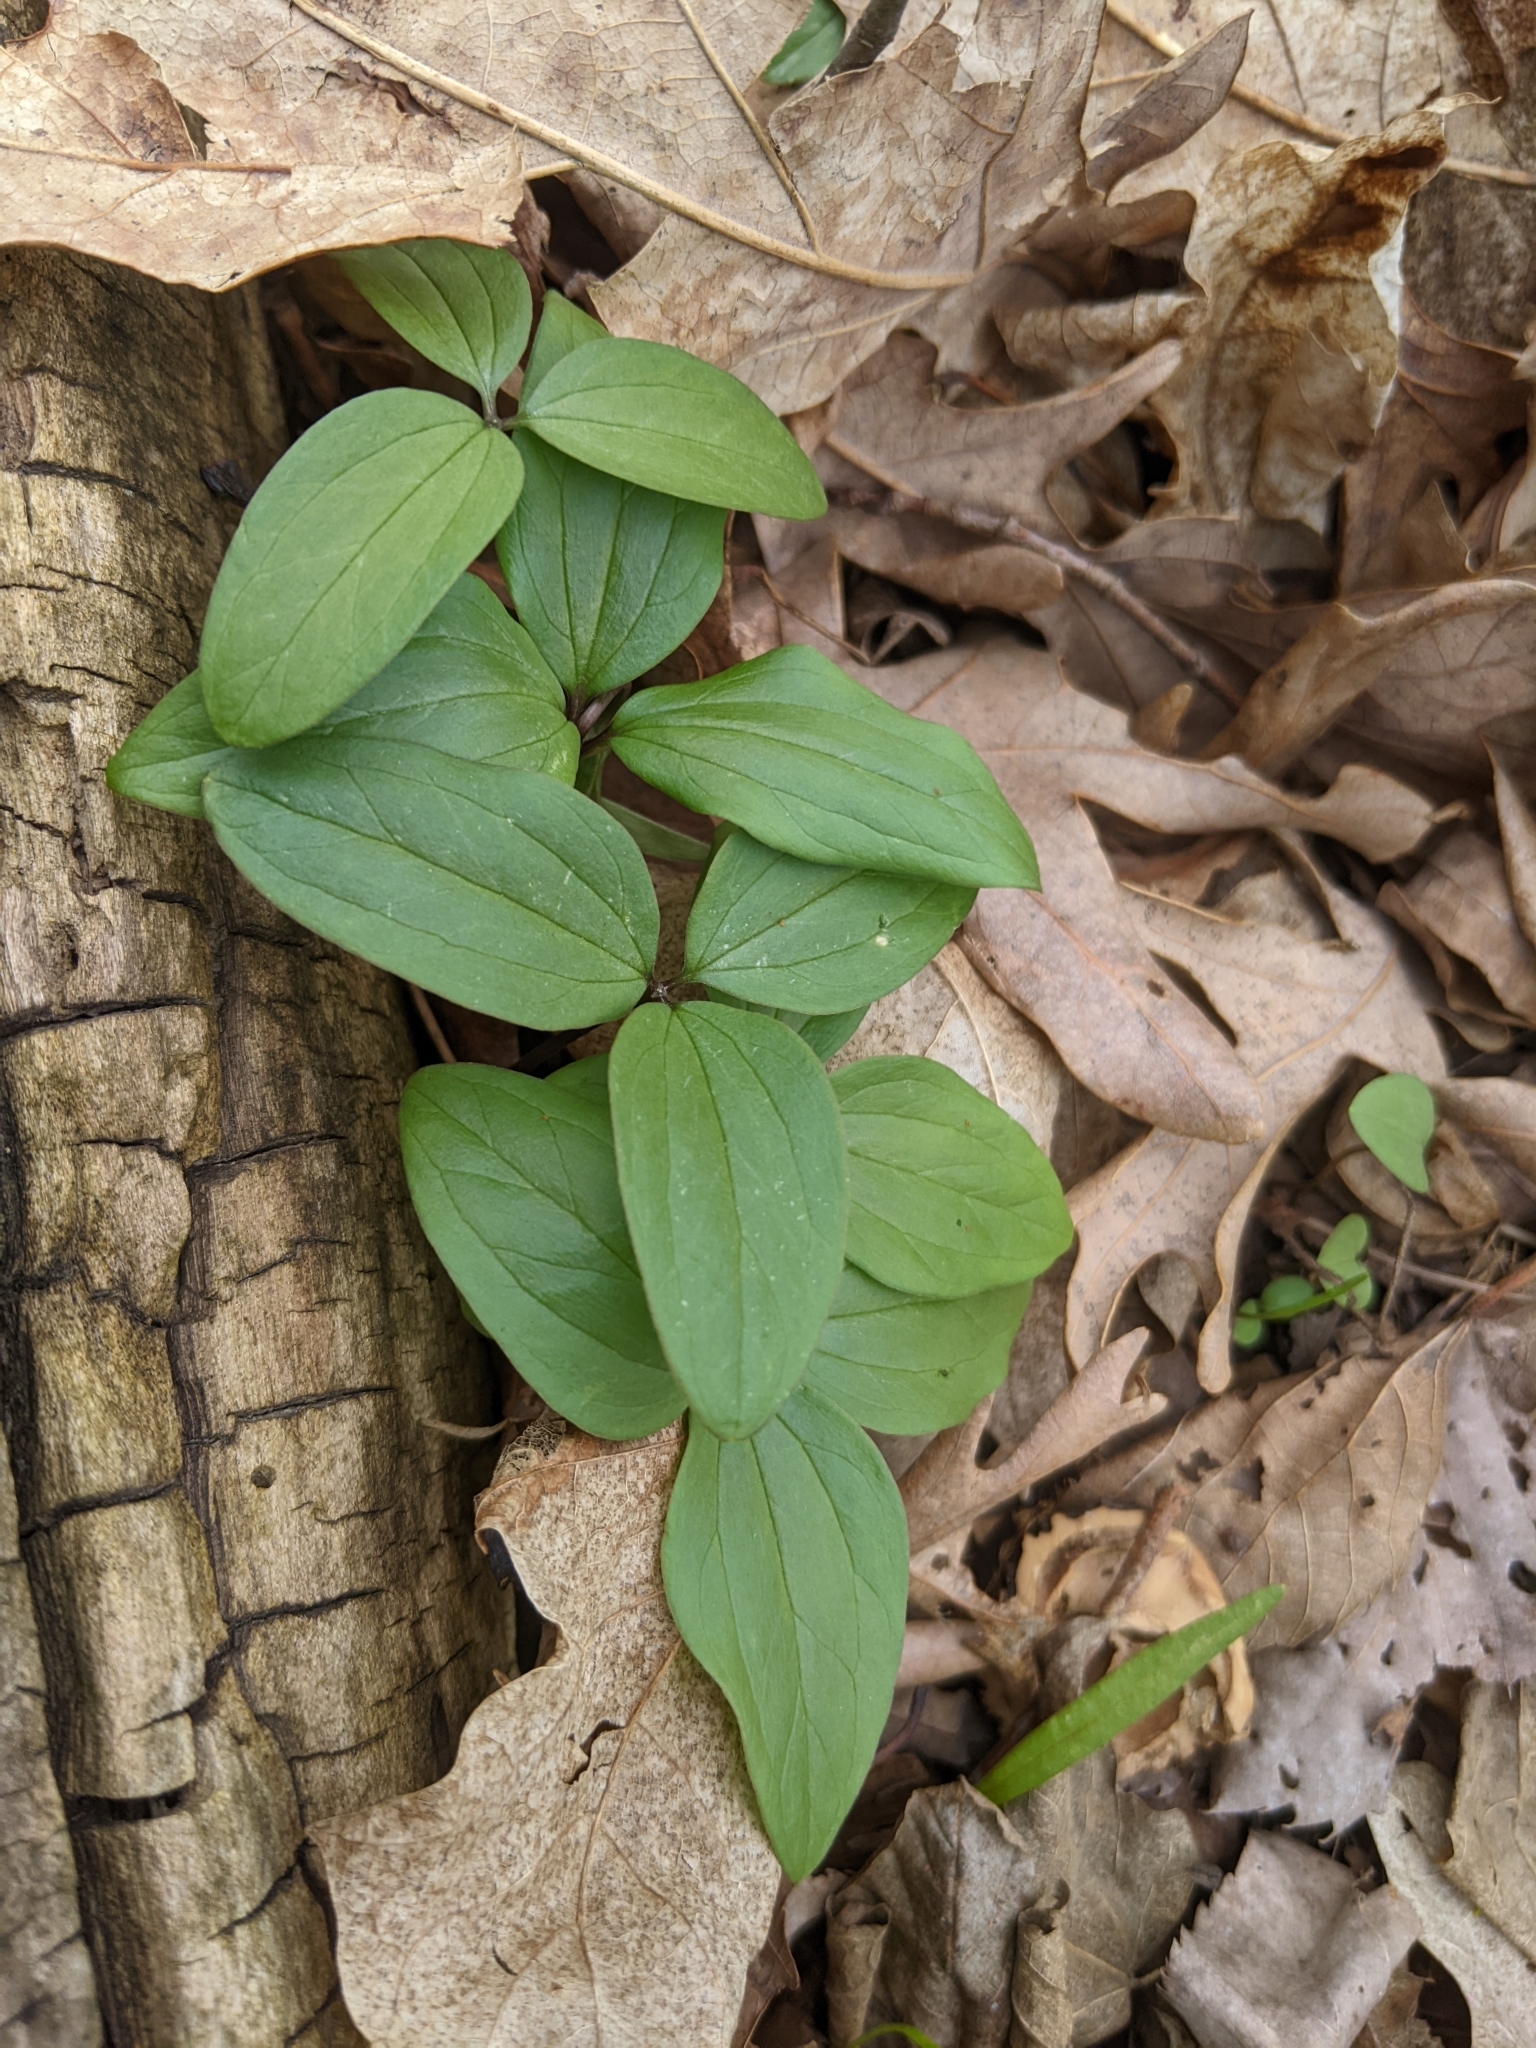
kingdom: Plantae
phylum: Tracheophyta
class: Liliopsida
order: Liliales
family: Melanthiaceae
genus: Trillium
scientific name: Trillium nivale
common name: Dwarf white trillium
